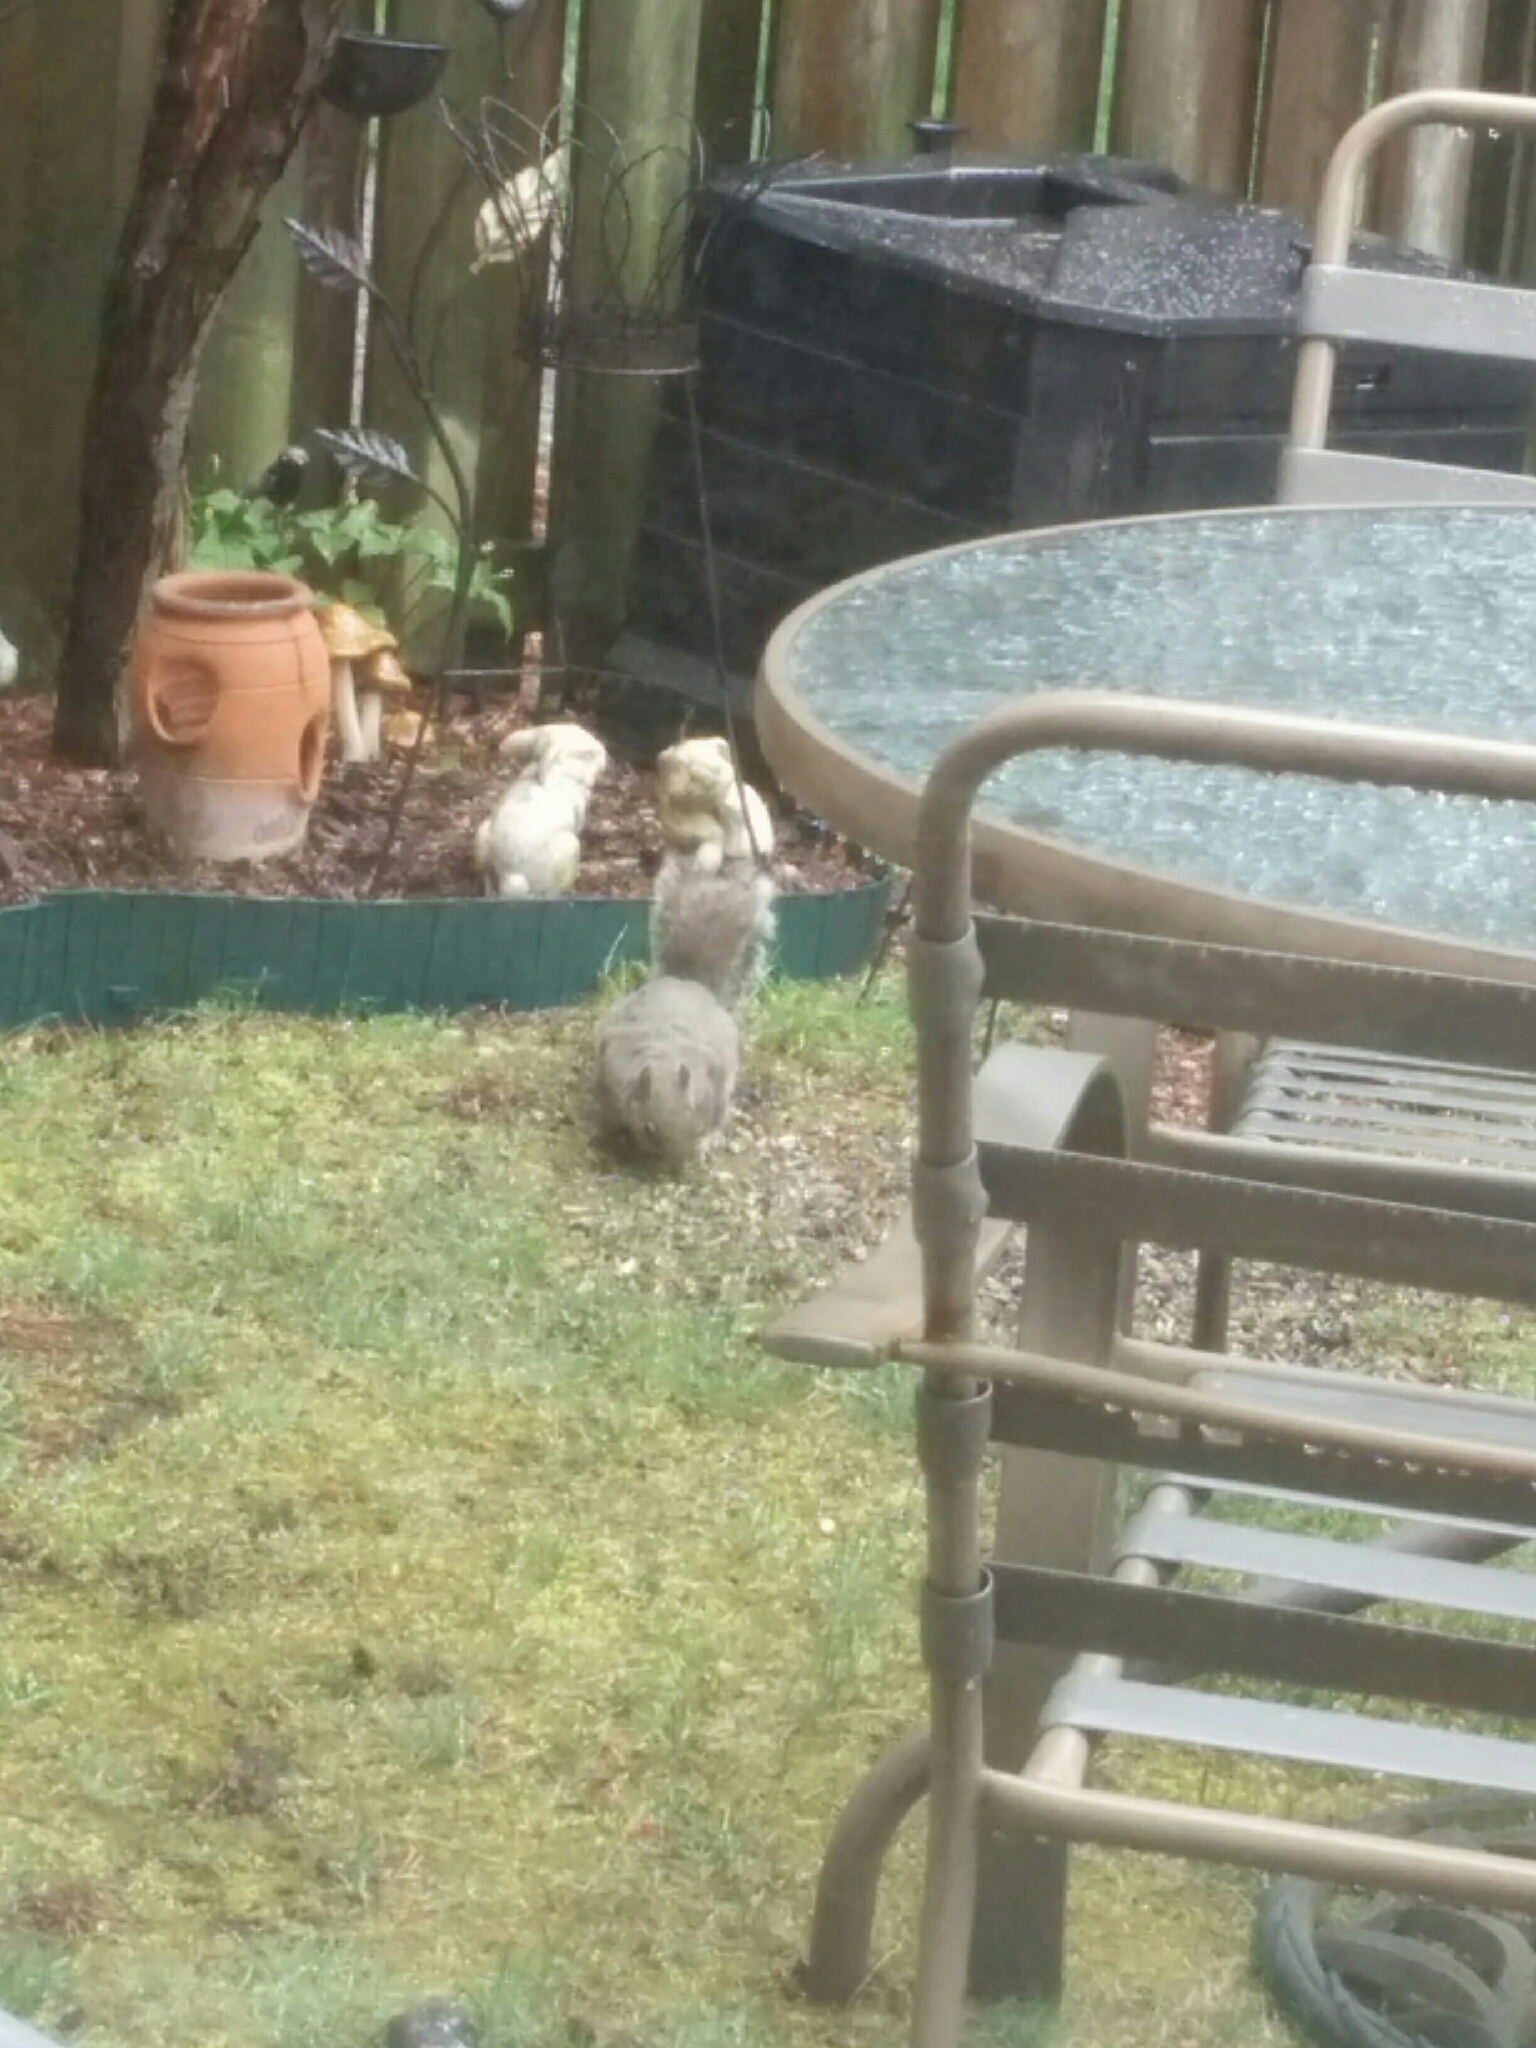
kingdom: Animalia
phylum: Chordata
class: Mammalia
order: Rodentia
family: Sciuridae
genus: Sciurus
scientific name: Sciurus carolinensis
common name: Eastern gray squirrel
